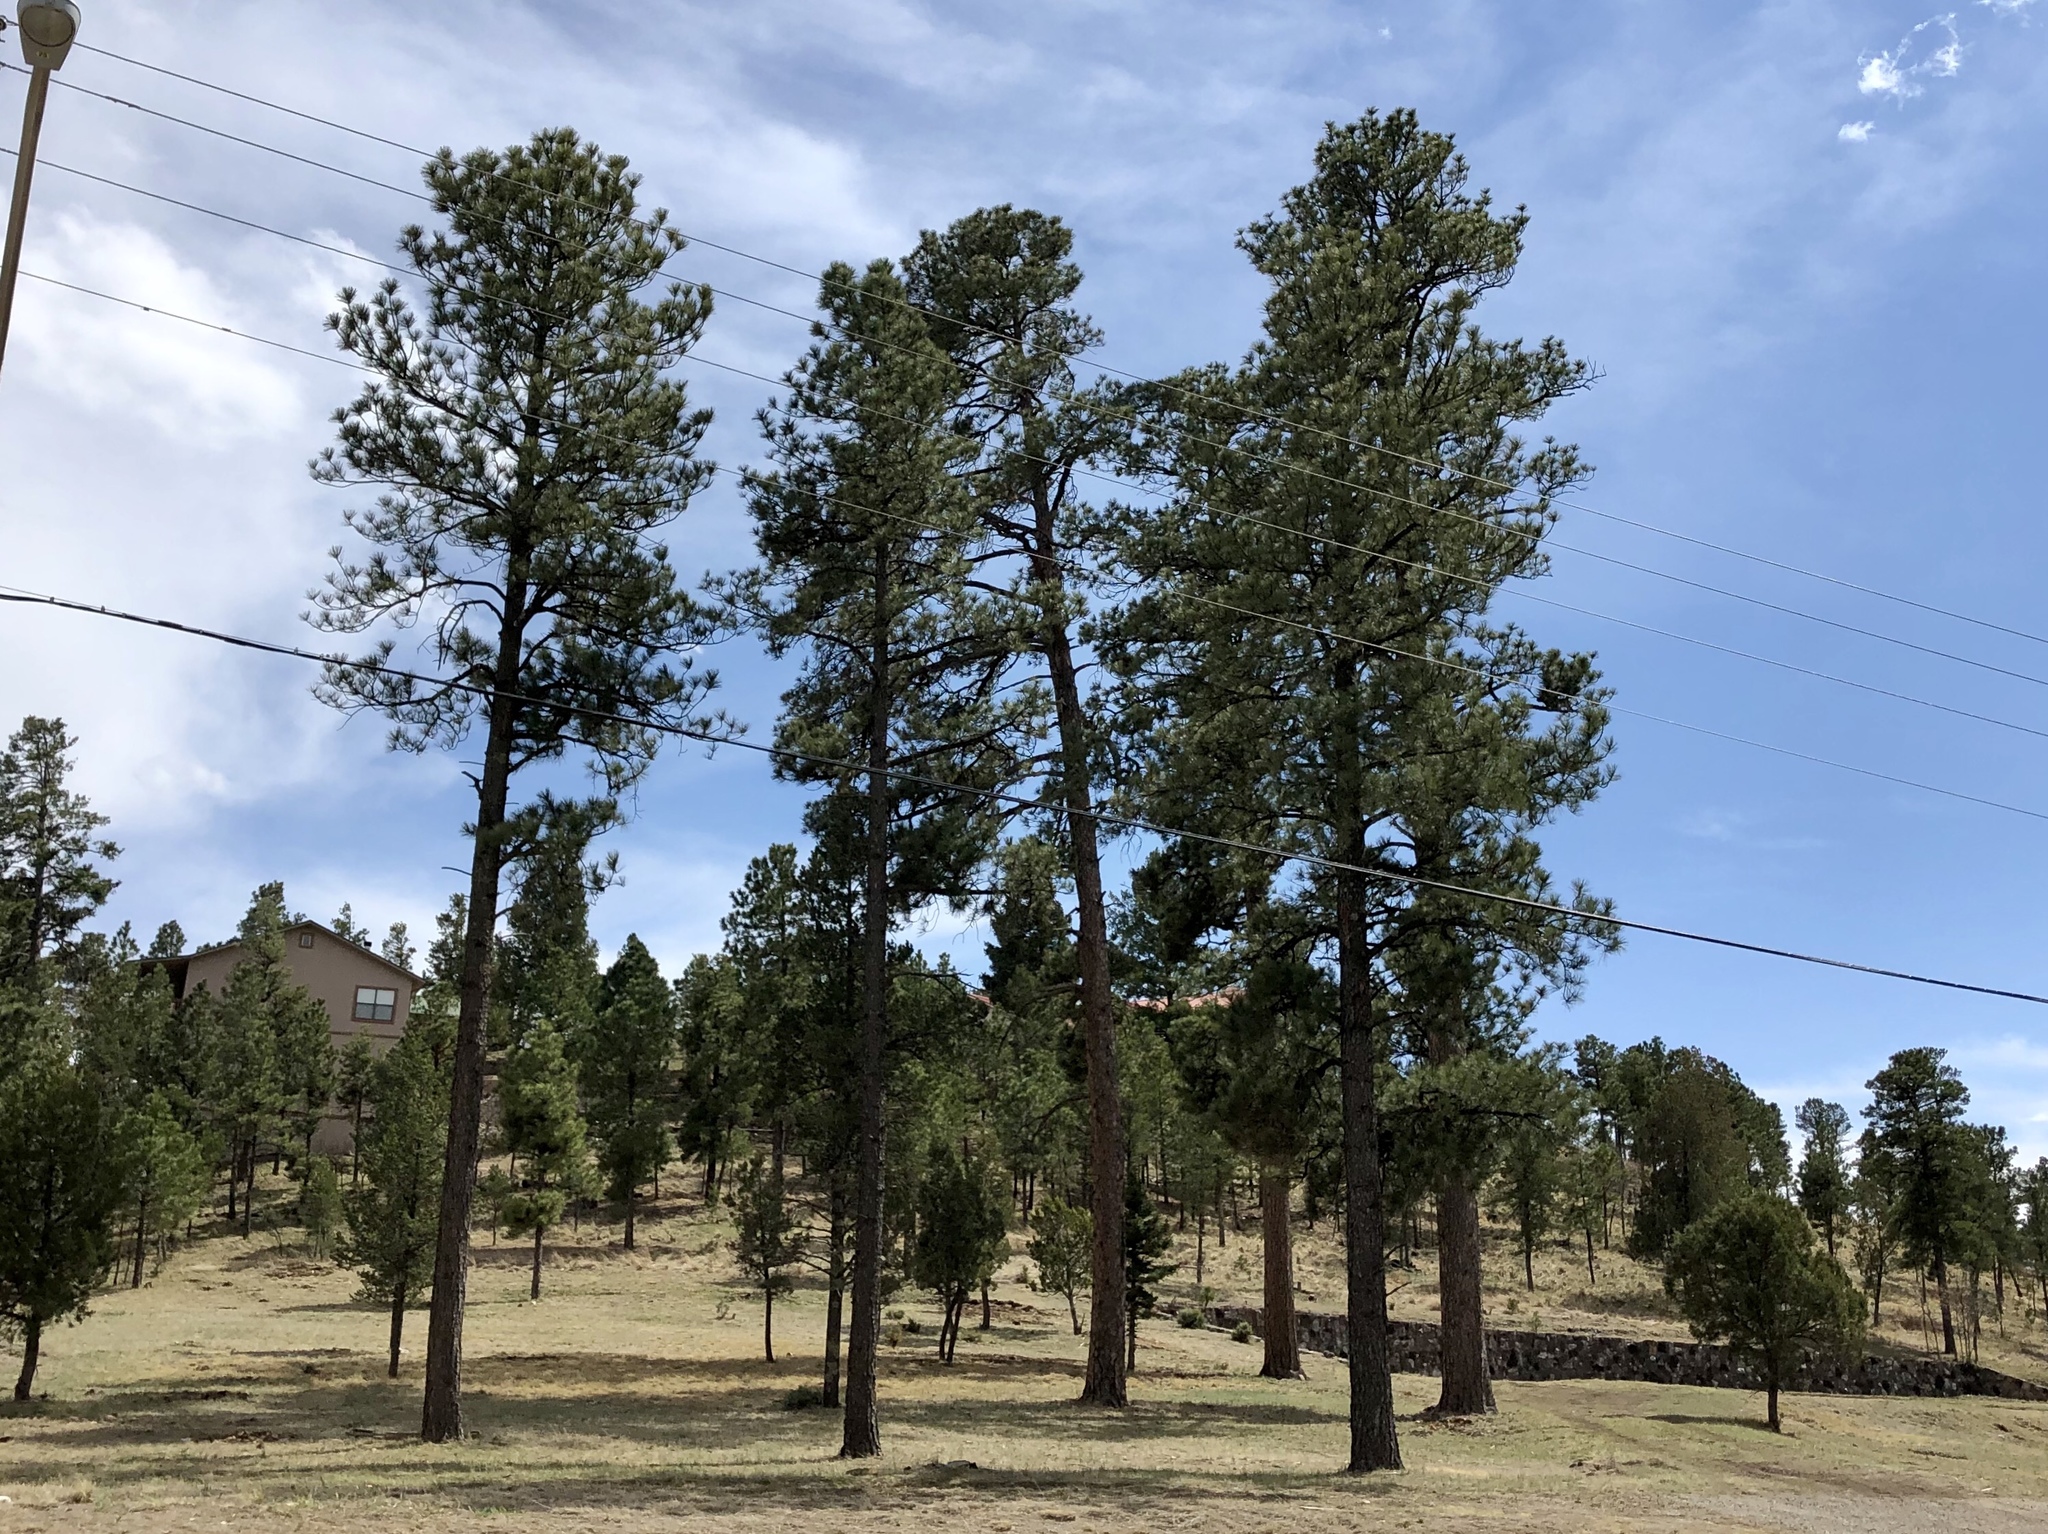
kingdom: Plantae
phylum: Tracheophyta
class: Pinopsida
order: Pinales
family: Pinaceae
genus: Pinus
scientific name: Pinus ponderosa
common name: Western yellow-pine
